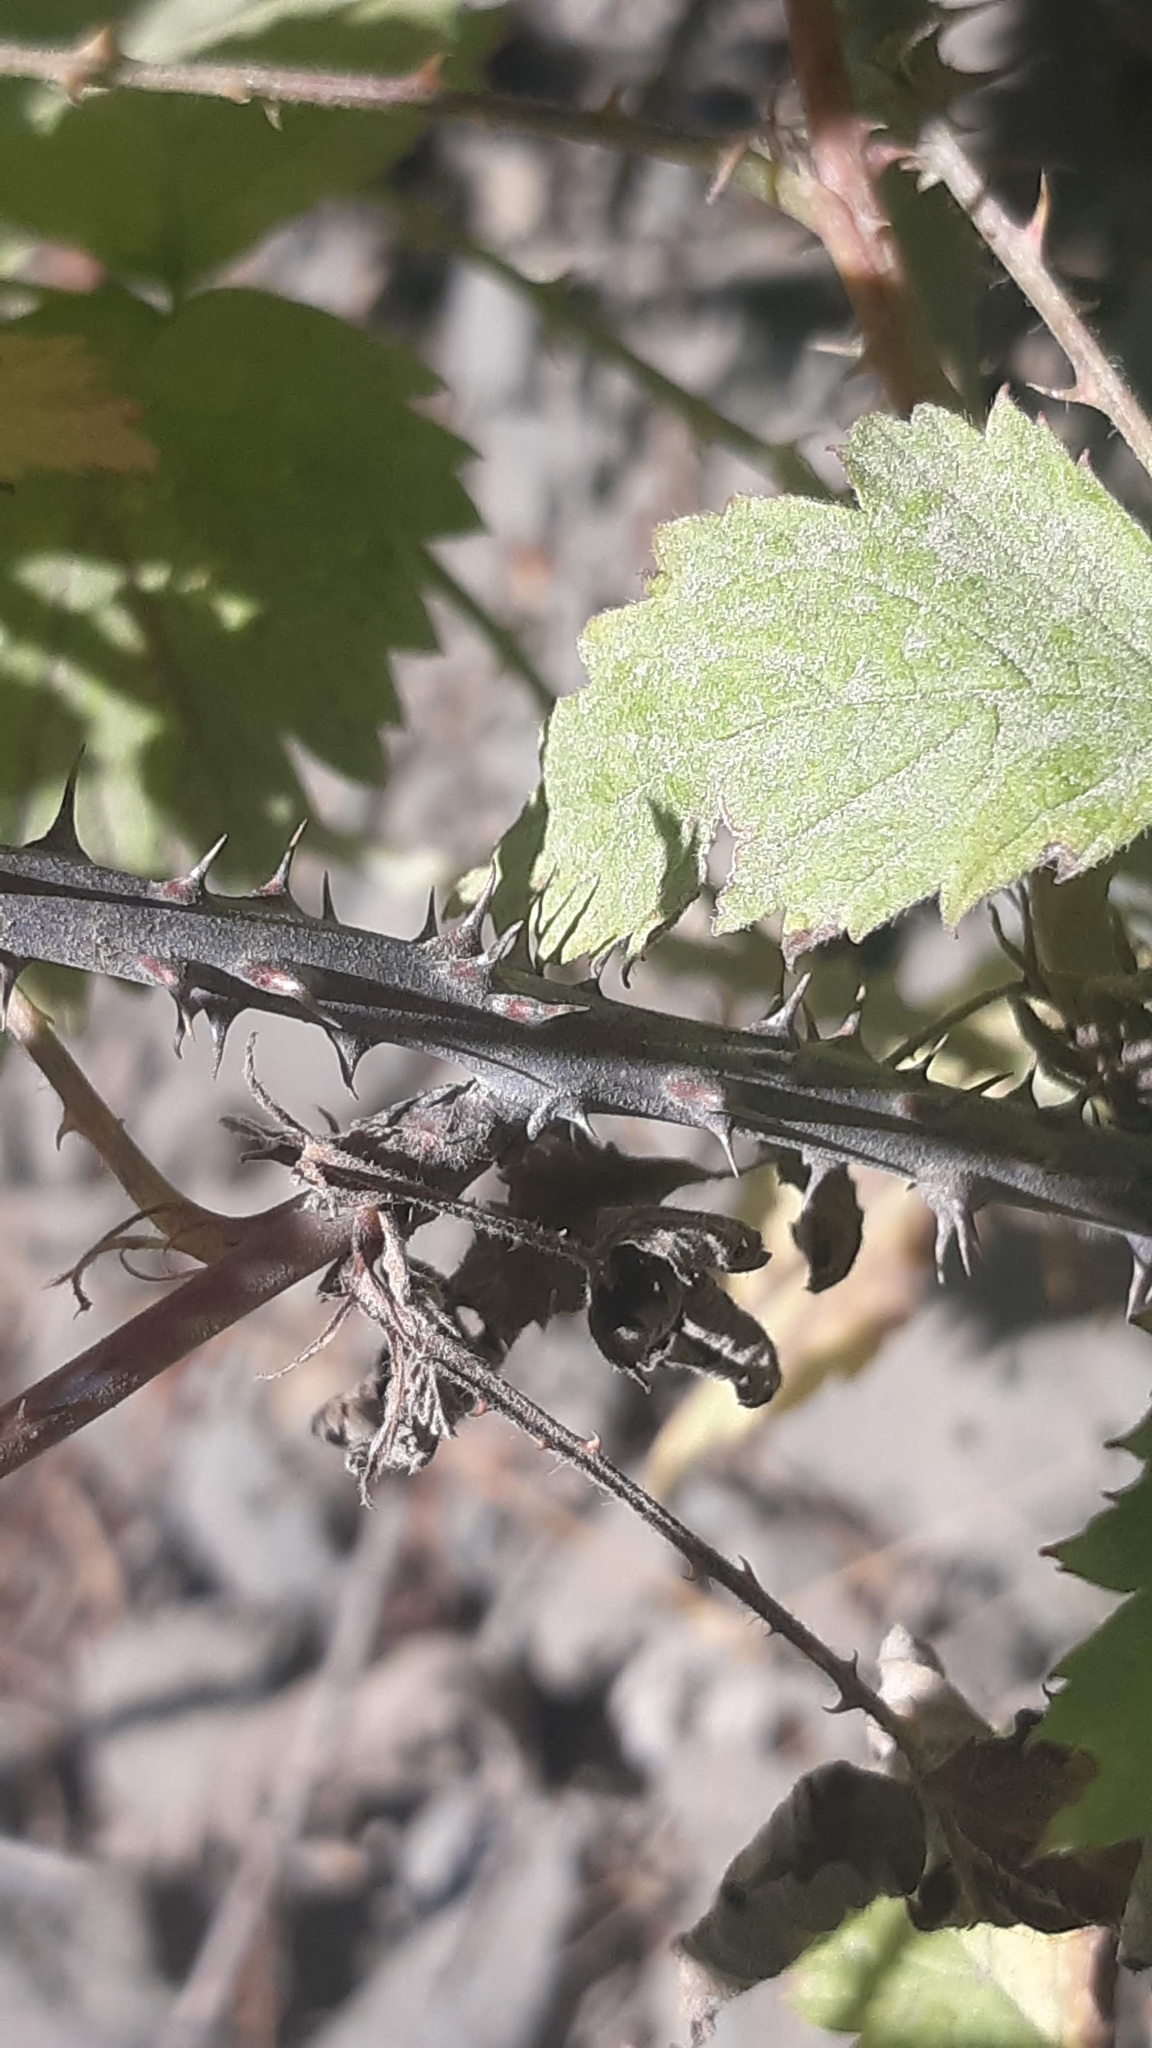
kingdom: Plantae
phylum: Tracheophyta
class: Magnoliopsida
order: Rosales
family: Rosaceae
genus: Rubus
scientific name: Rubus leucodermis
